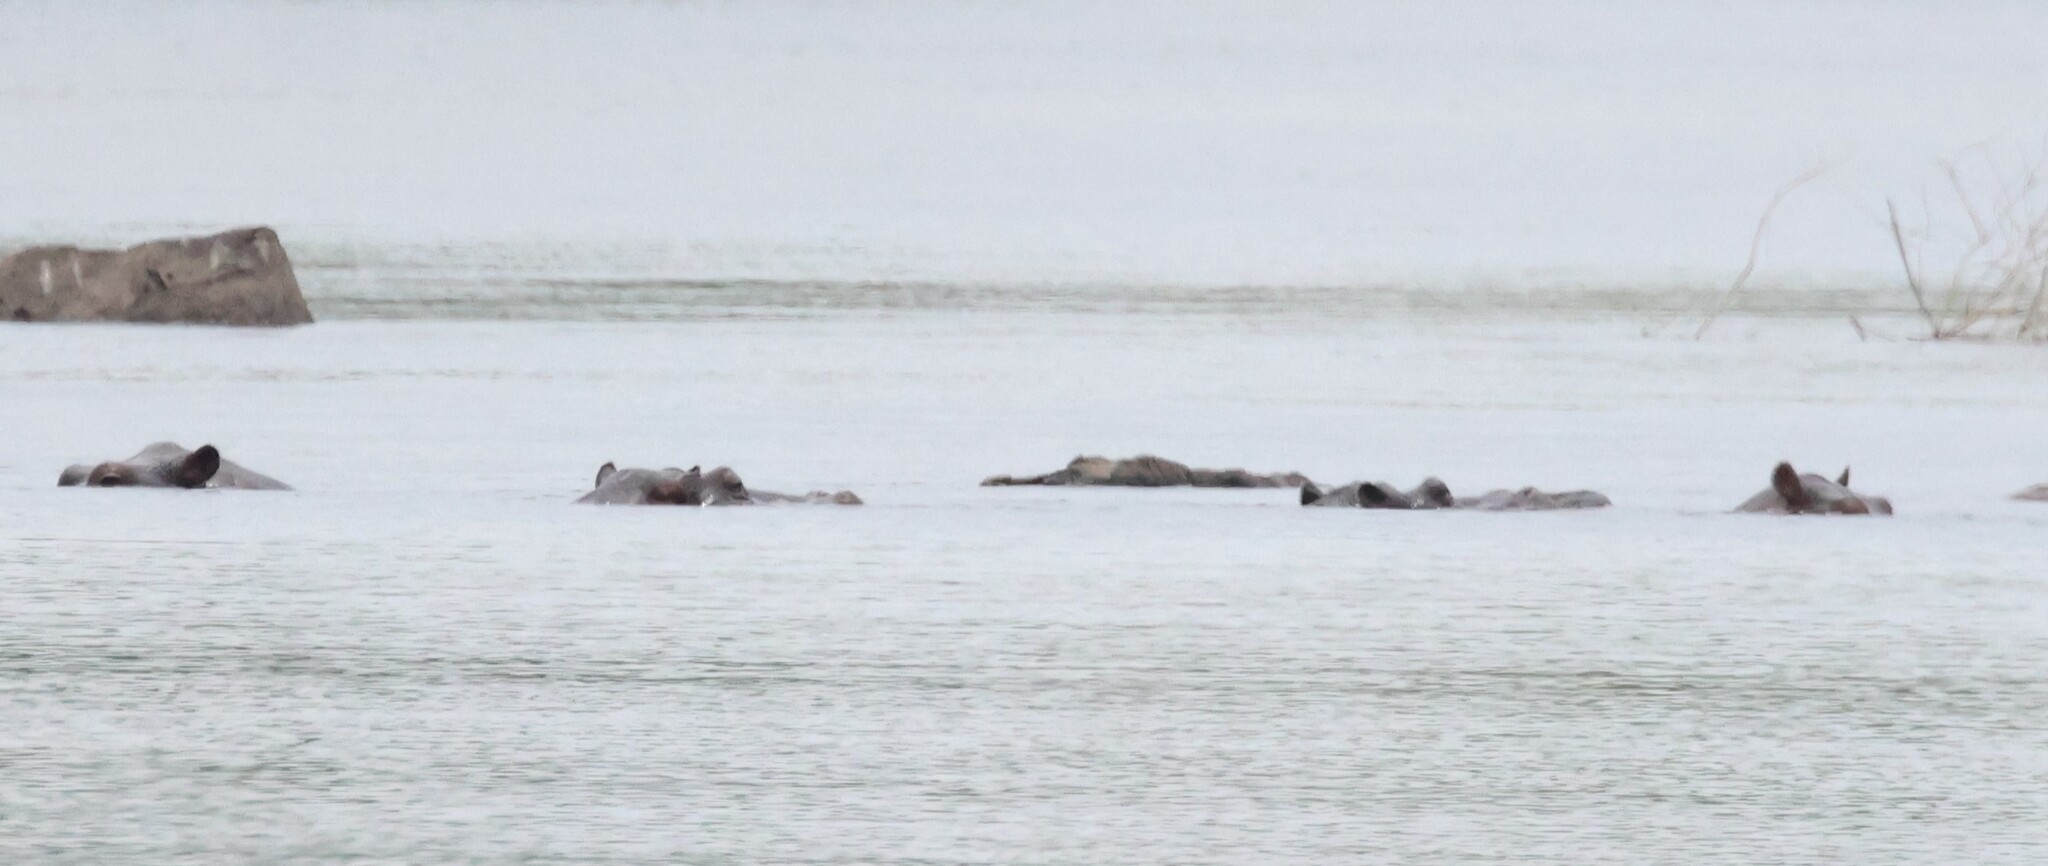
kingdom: Animalia
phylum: Chordata
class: Mammalia
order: Artiodactyla
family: Hippopotamidae
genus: Hippopotamus
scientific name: Hippopotamus amphibius
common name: Common hippopotamus
